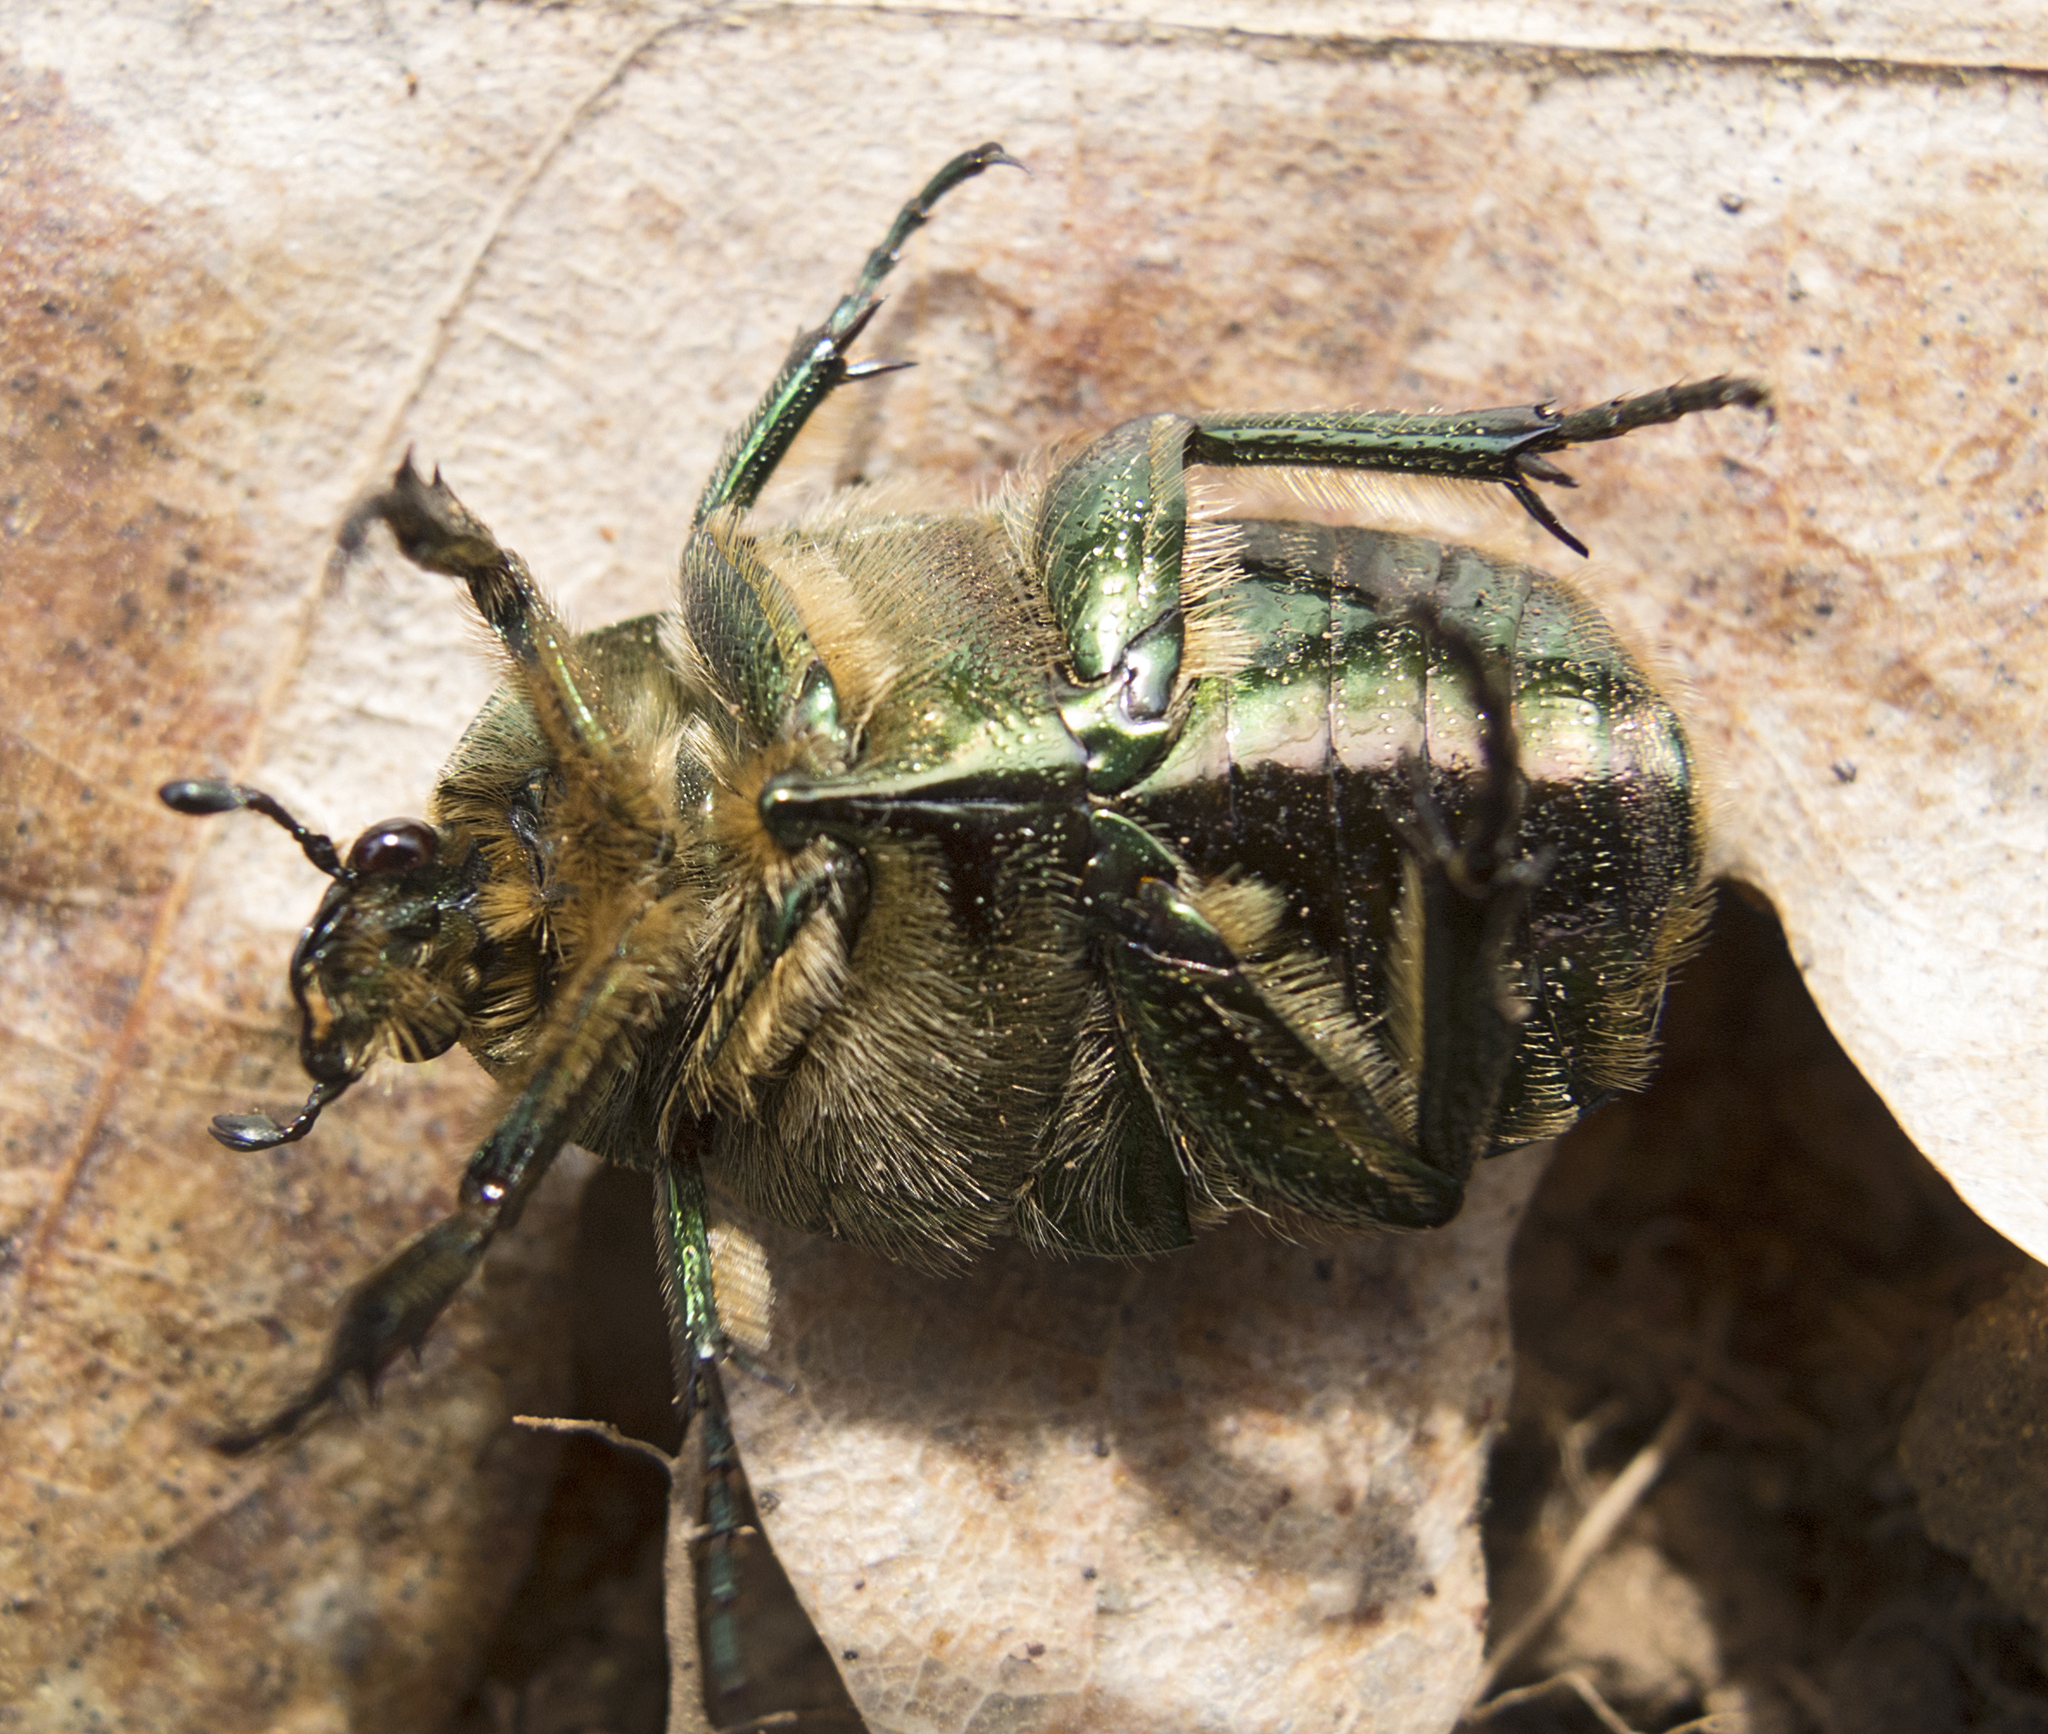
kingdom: Animalia
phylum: Arthropoda
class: Insecta
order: Coleoptera
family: Scarabaeidae
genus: Cetonia
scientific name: Cetonia aurata
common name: Rose chafer
